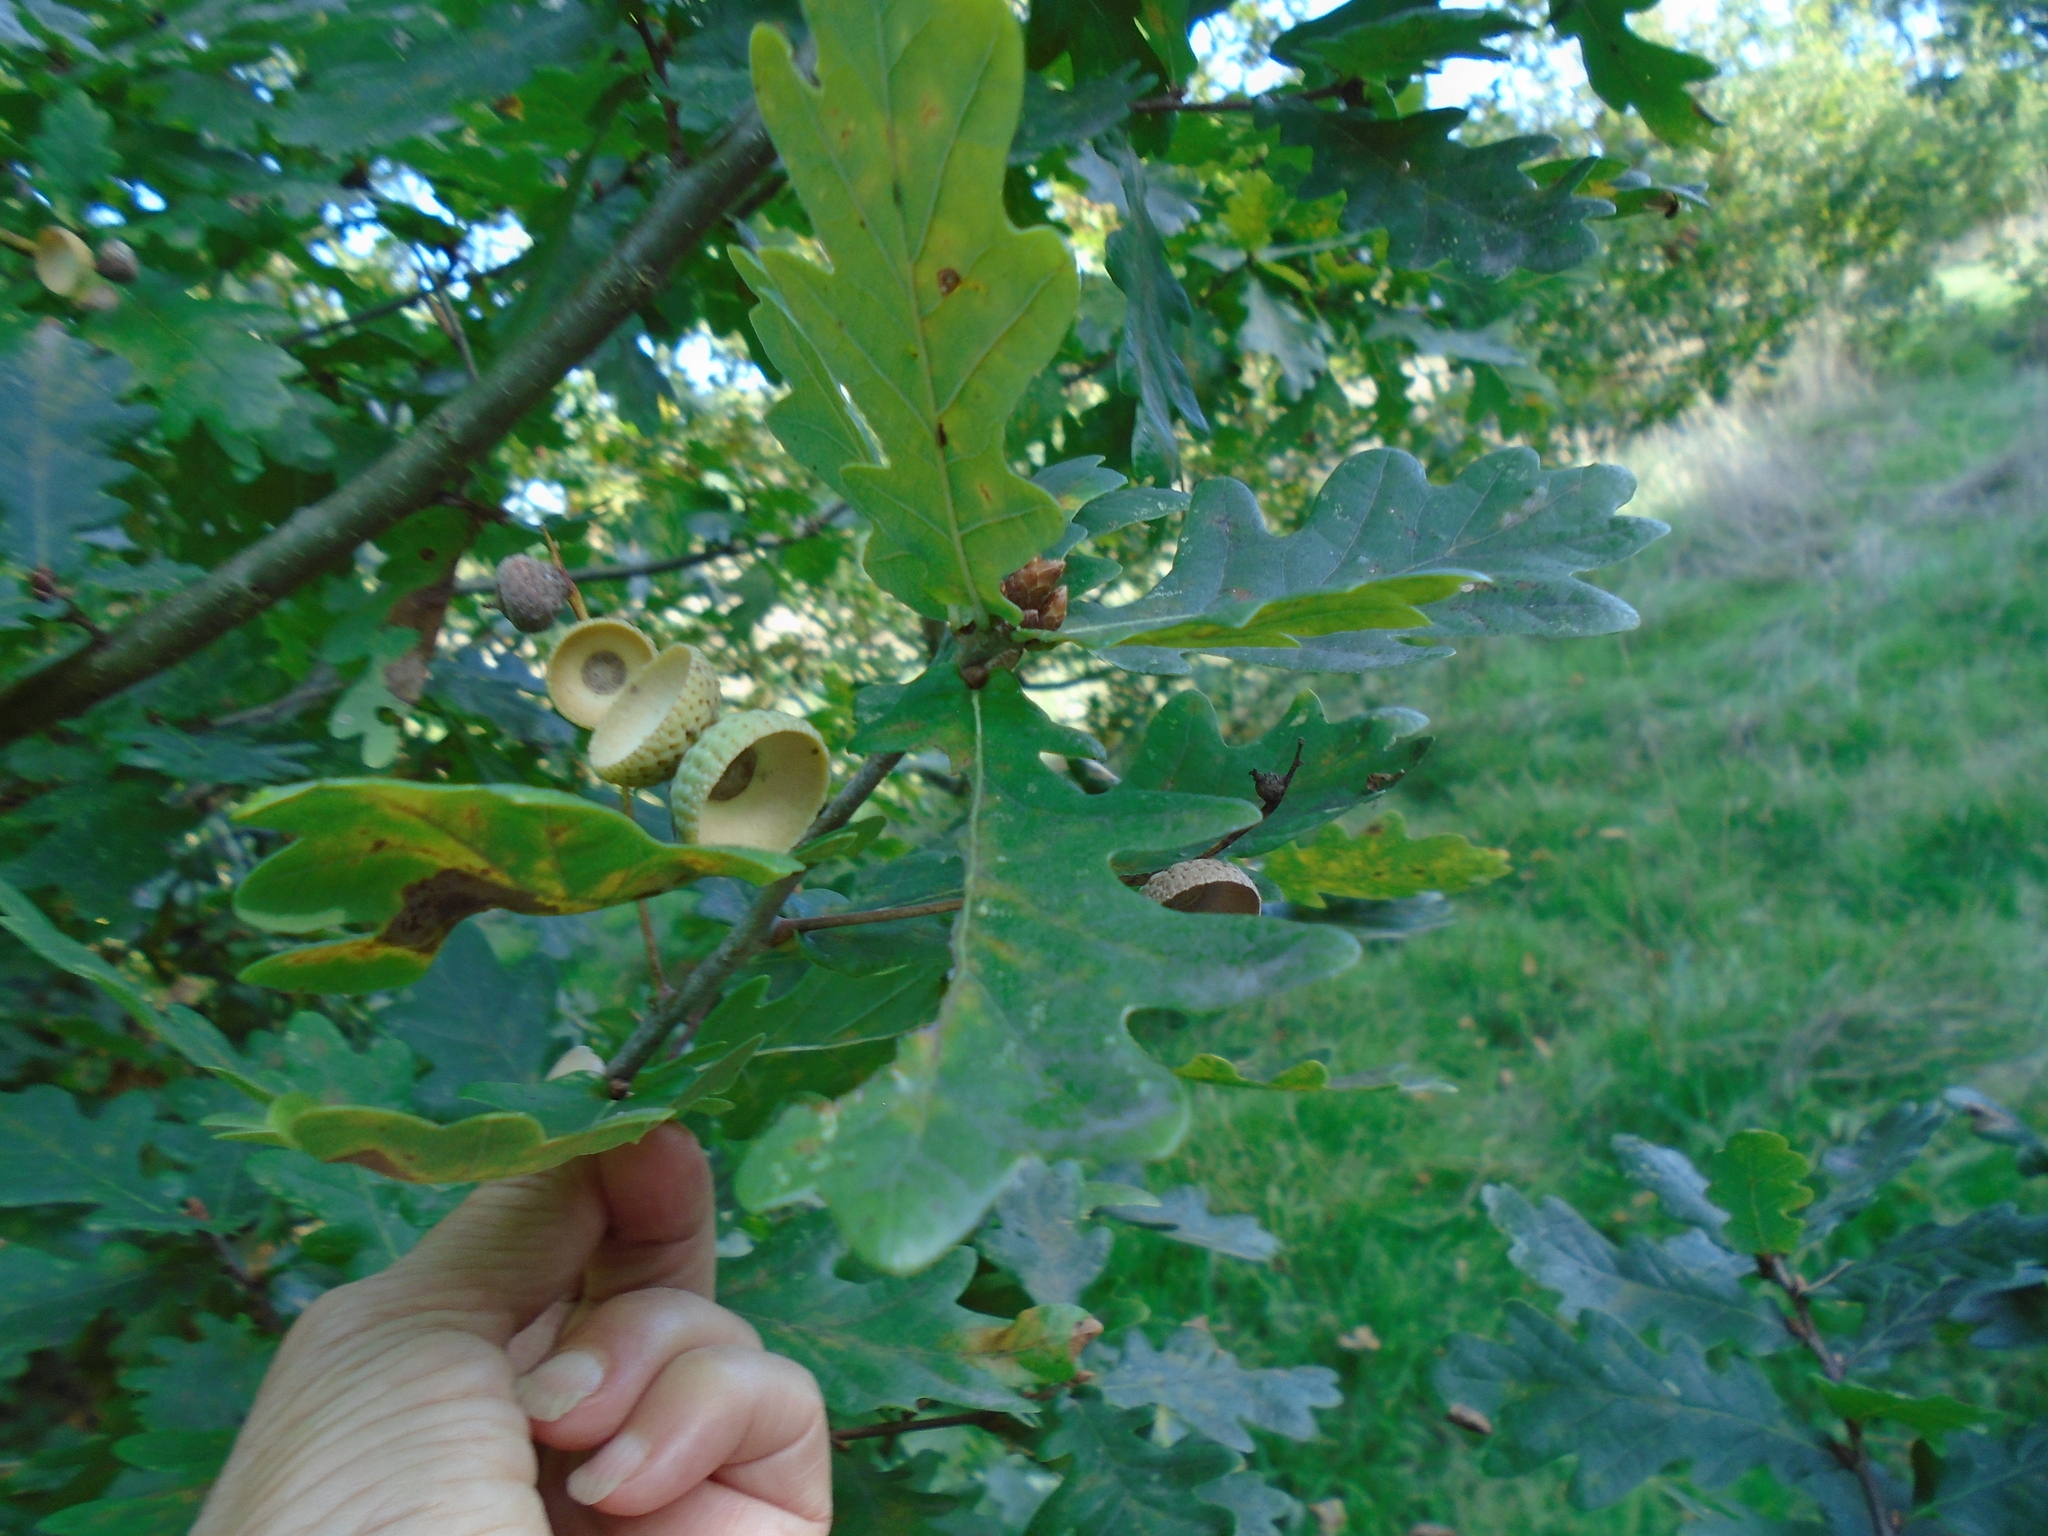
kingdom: Plantae
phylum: Tracheophyta
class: Magnoliopsida
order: Fagales
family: Fagaceae
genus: Quercus
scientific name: Quercus robur
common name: Pedunculate oak
